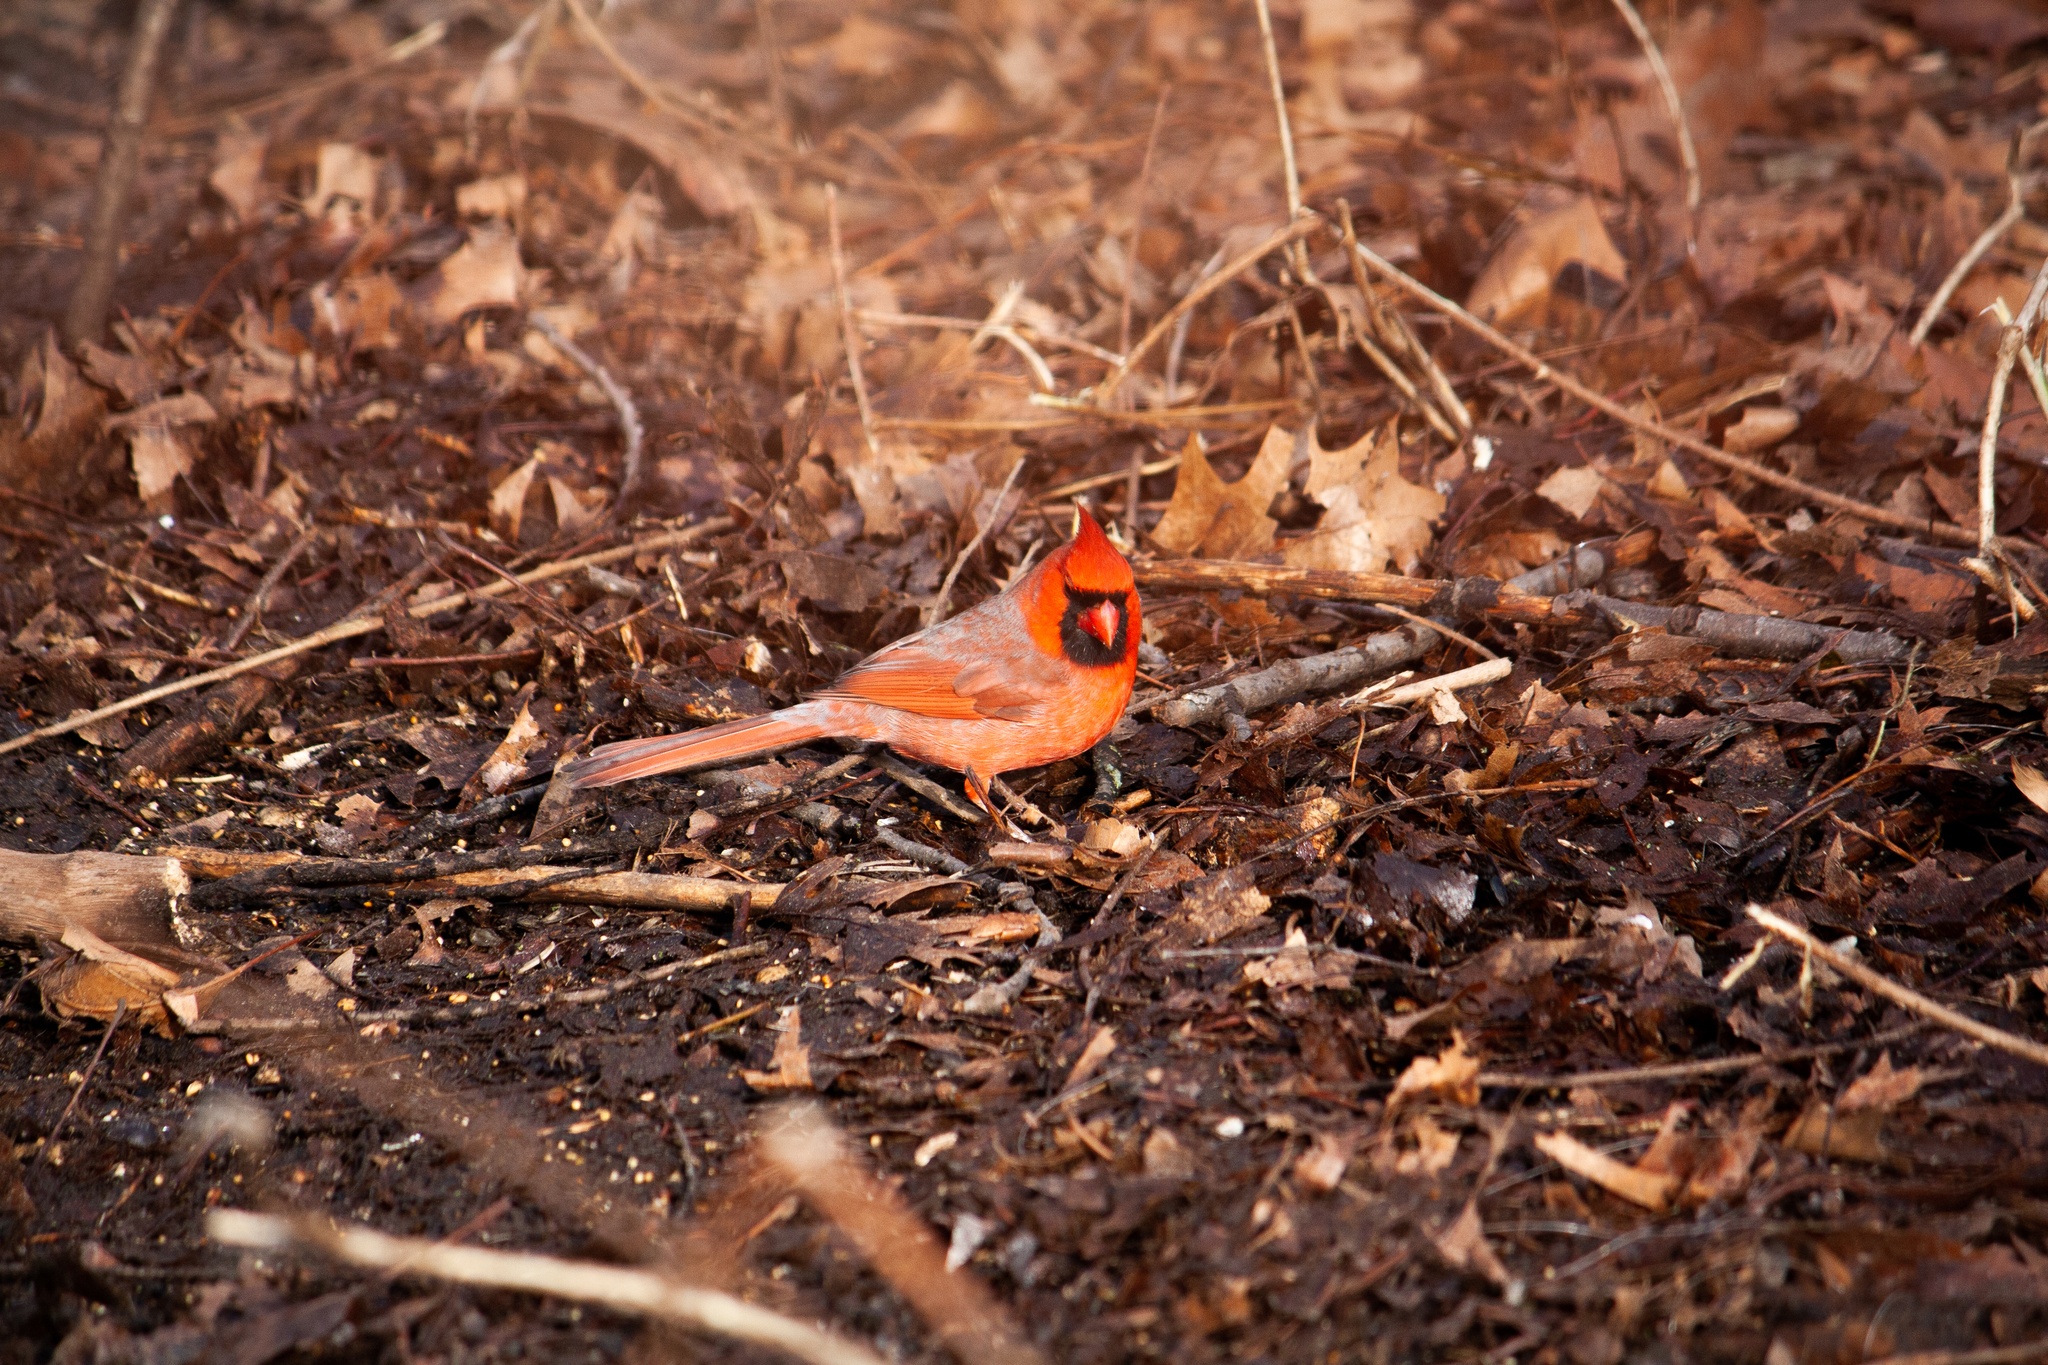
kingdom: Animalia
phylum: Chordata
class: Aves
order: Passeriformes
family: Cardinalidae
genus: Cardinalis
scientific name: Cardinalis cardinalis
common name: Northern cardinal
